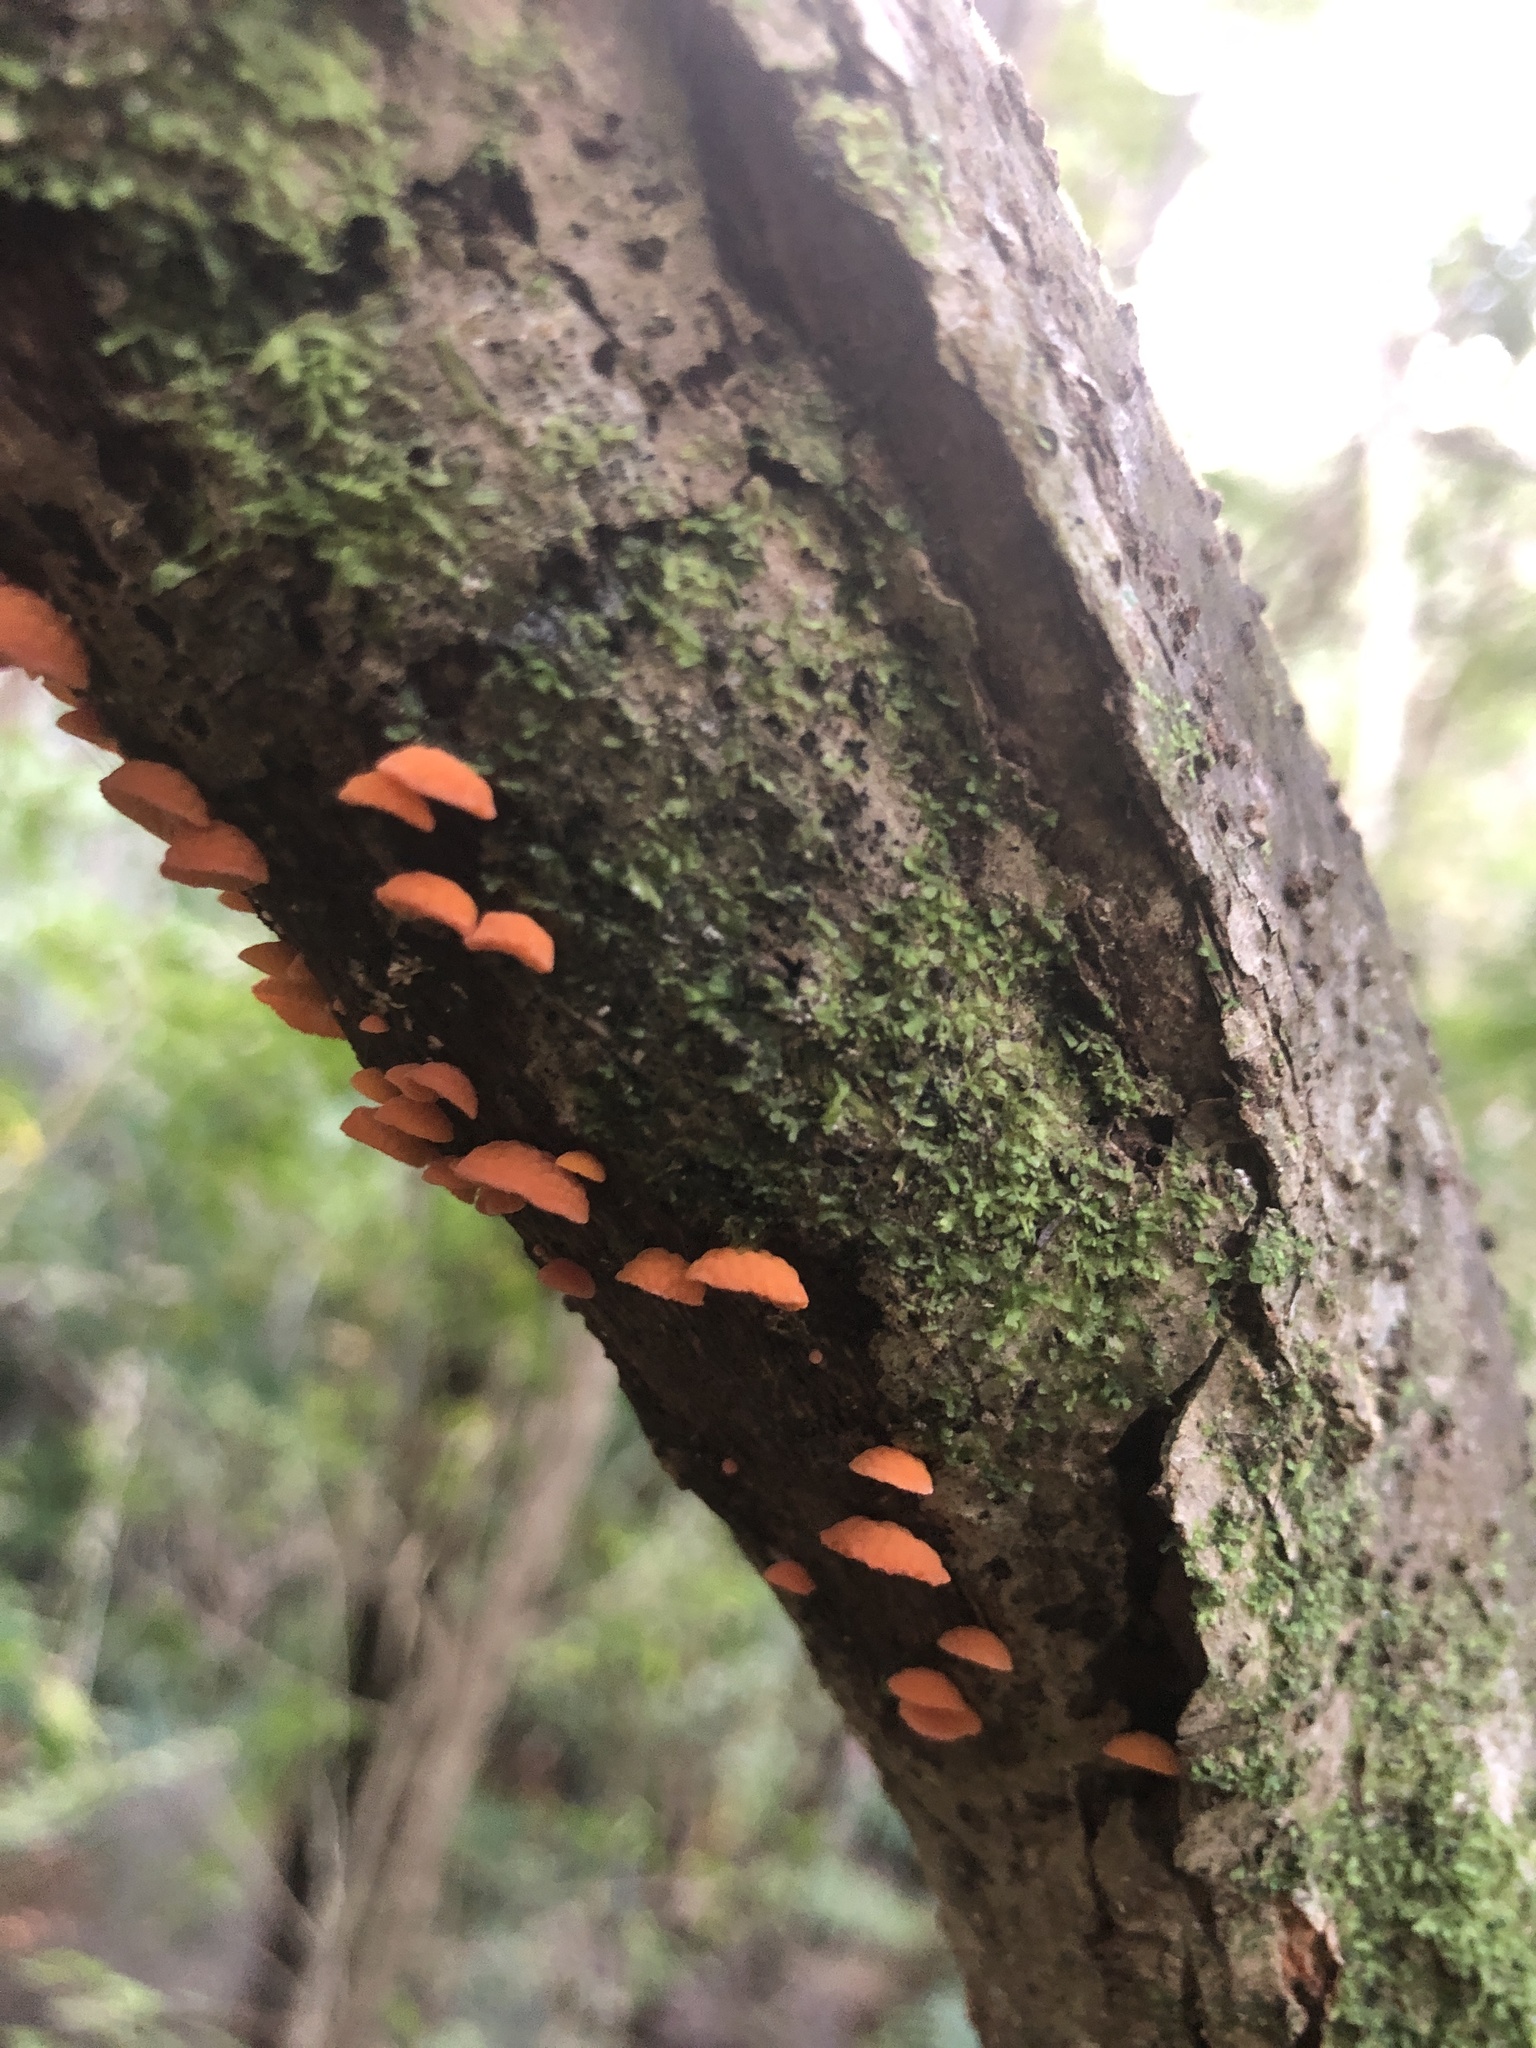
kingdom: Fungi
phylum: Basidiomycota
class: Agaricomycetes
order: Agaricales
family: Mycenaceae
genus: Favolaschia
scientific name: Favolaschia claudopus
